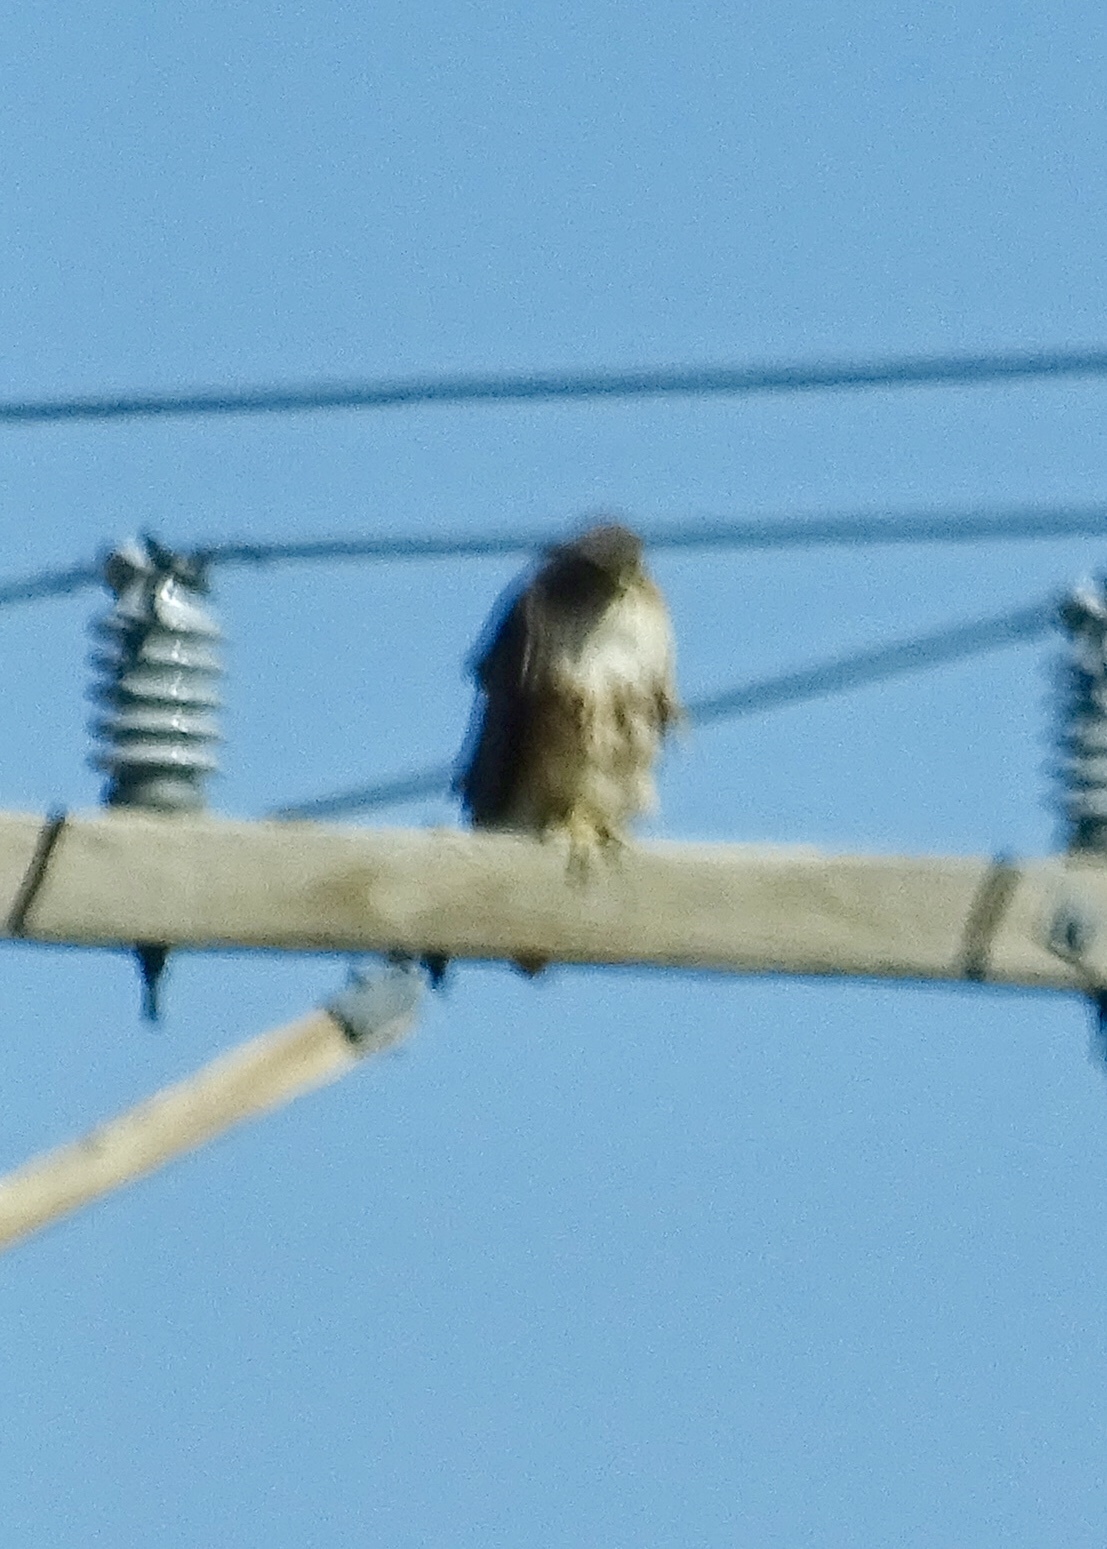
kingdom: Animalia
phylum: Chordata
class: Aves
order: Accipitriformes
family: Accipitridae
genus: Buteo
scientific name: Buteo jamaicensis
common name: Red-tailed hawk
